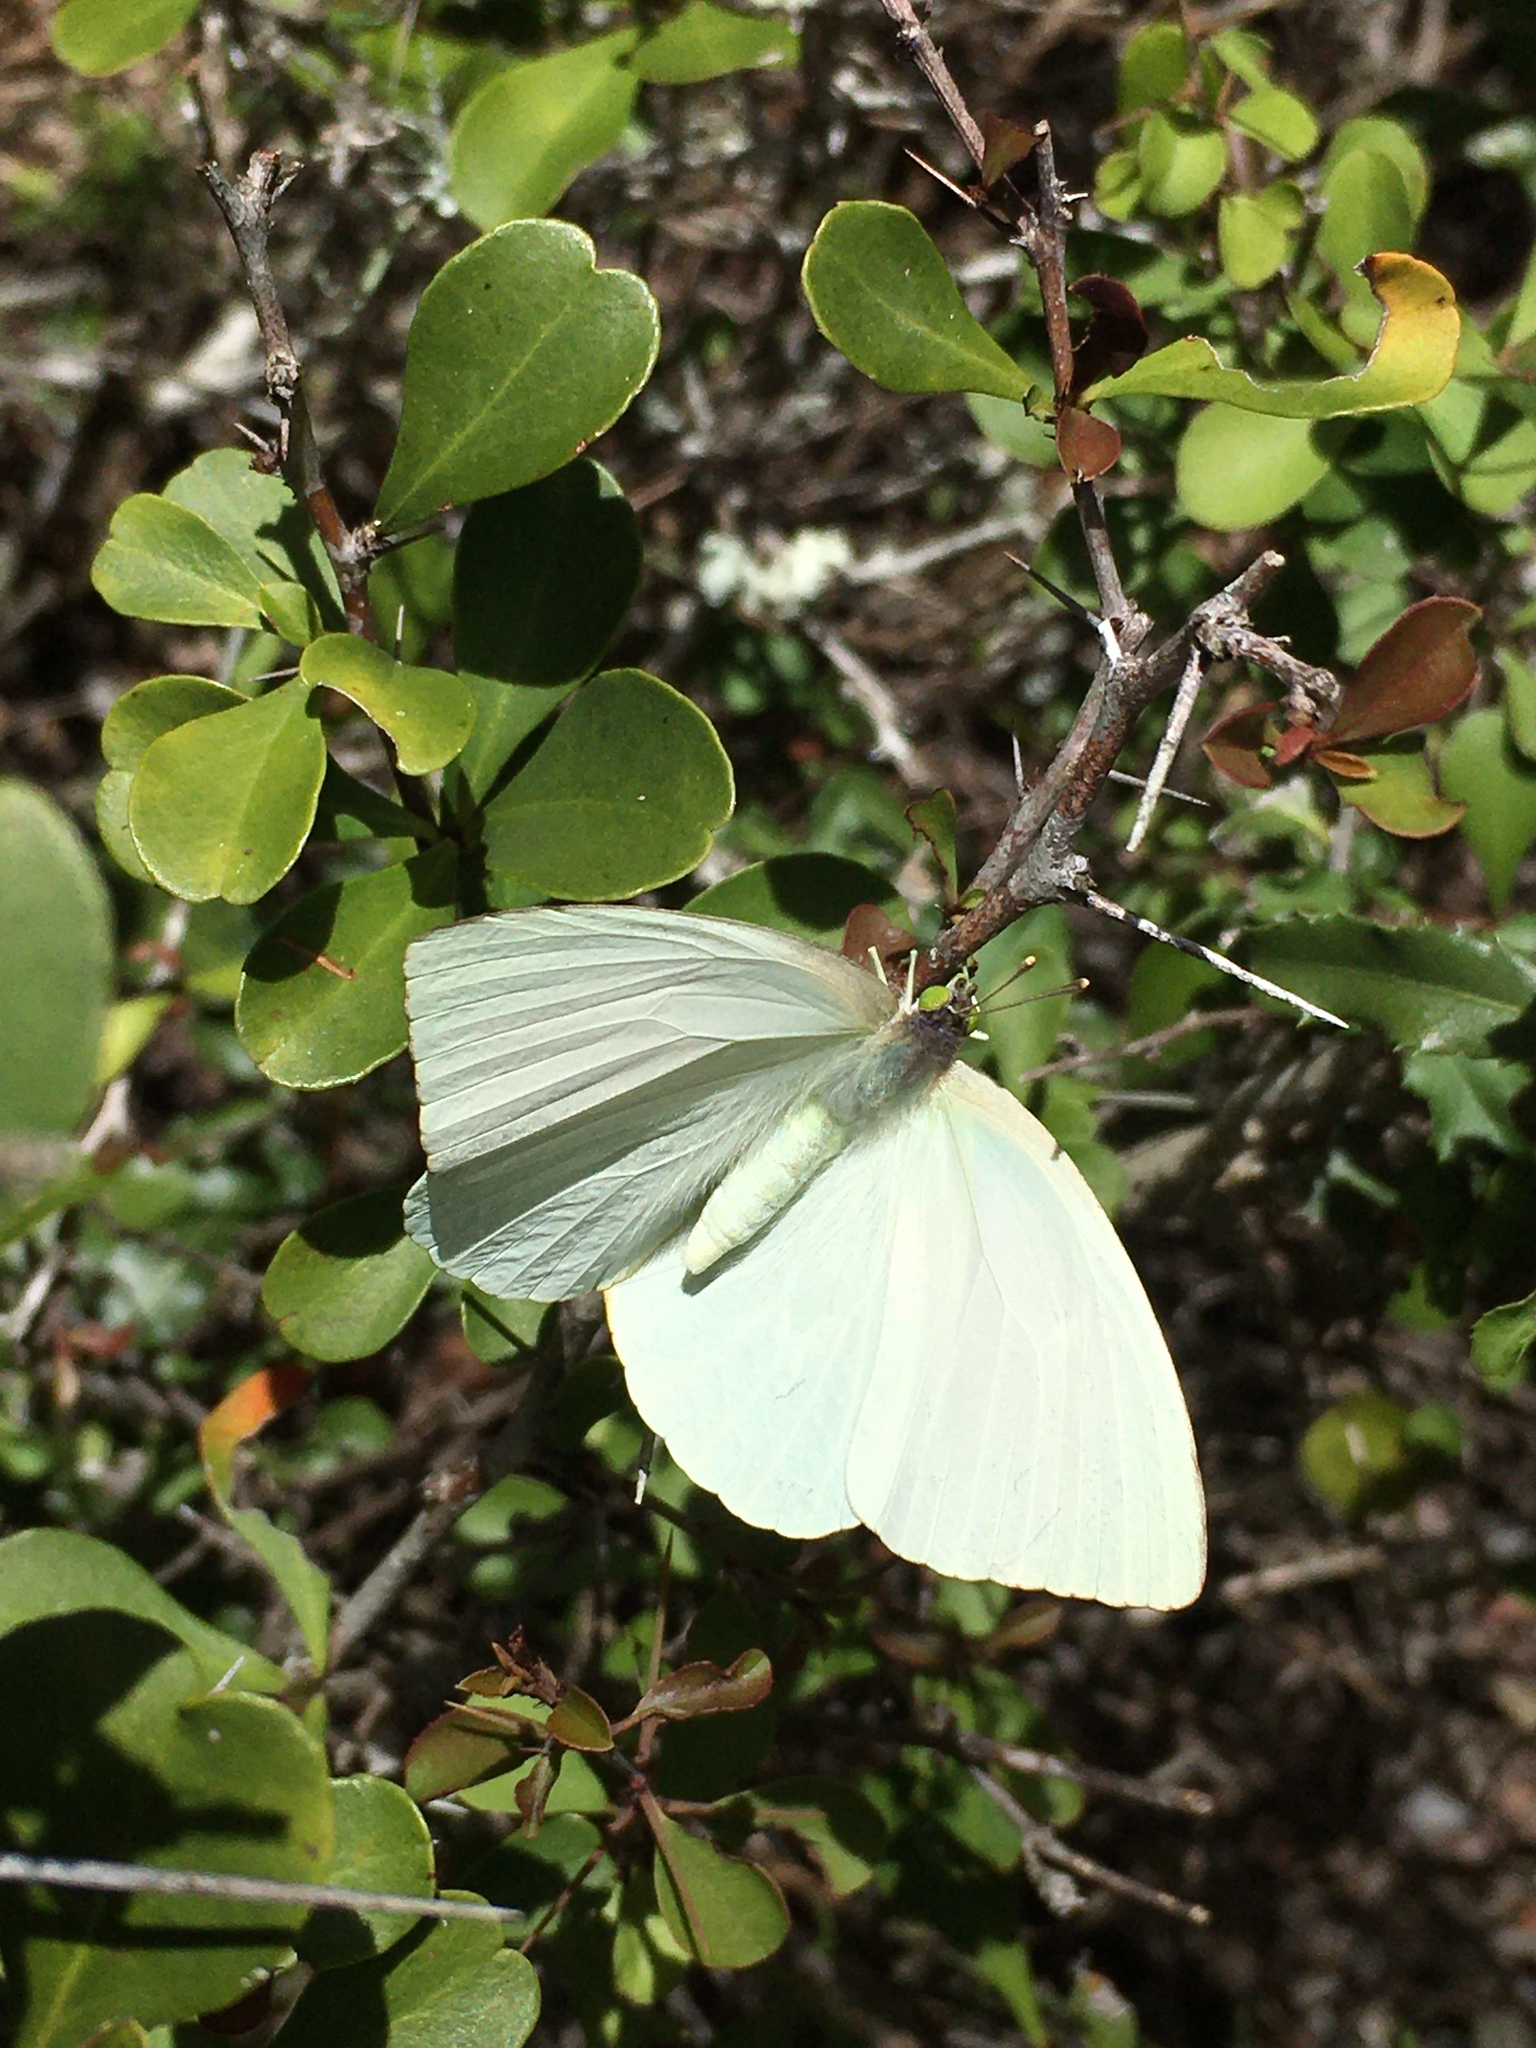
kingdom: Animalia
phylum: Arthropoda
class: Insecta
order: Lepidoptera
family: Pieridae
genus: Nepheronia
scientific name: Nepheronia buquetii
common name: Plain vagrant
